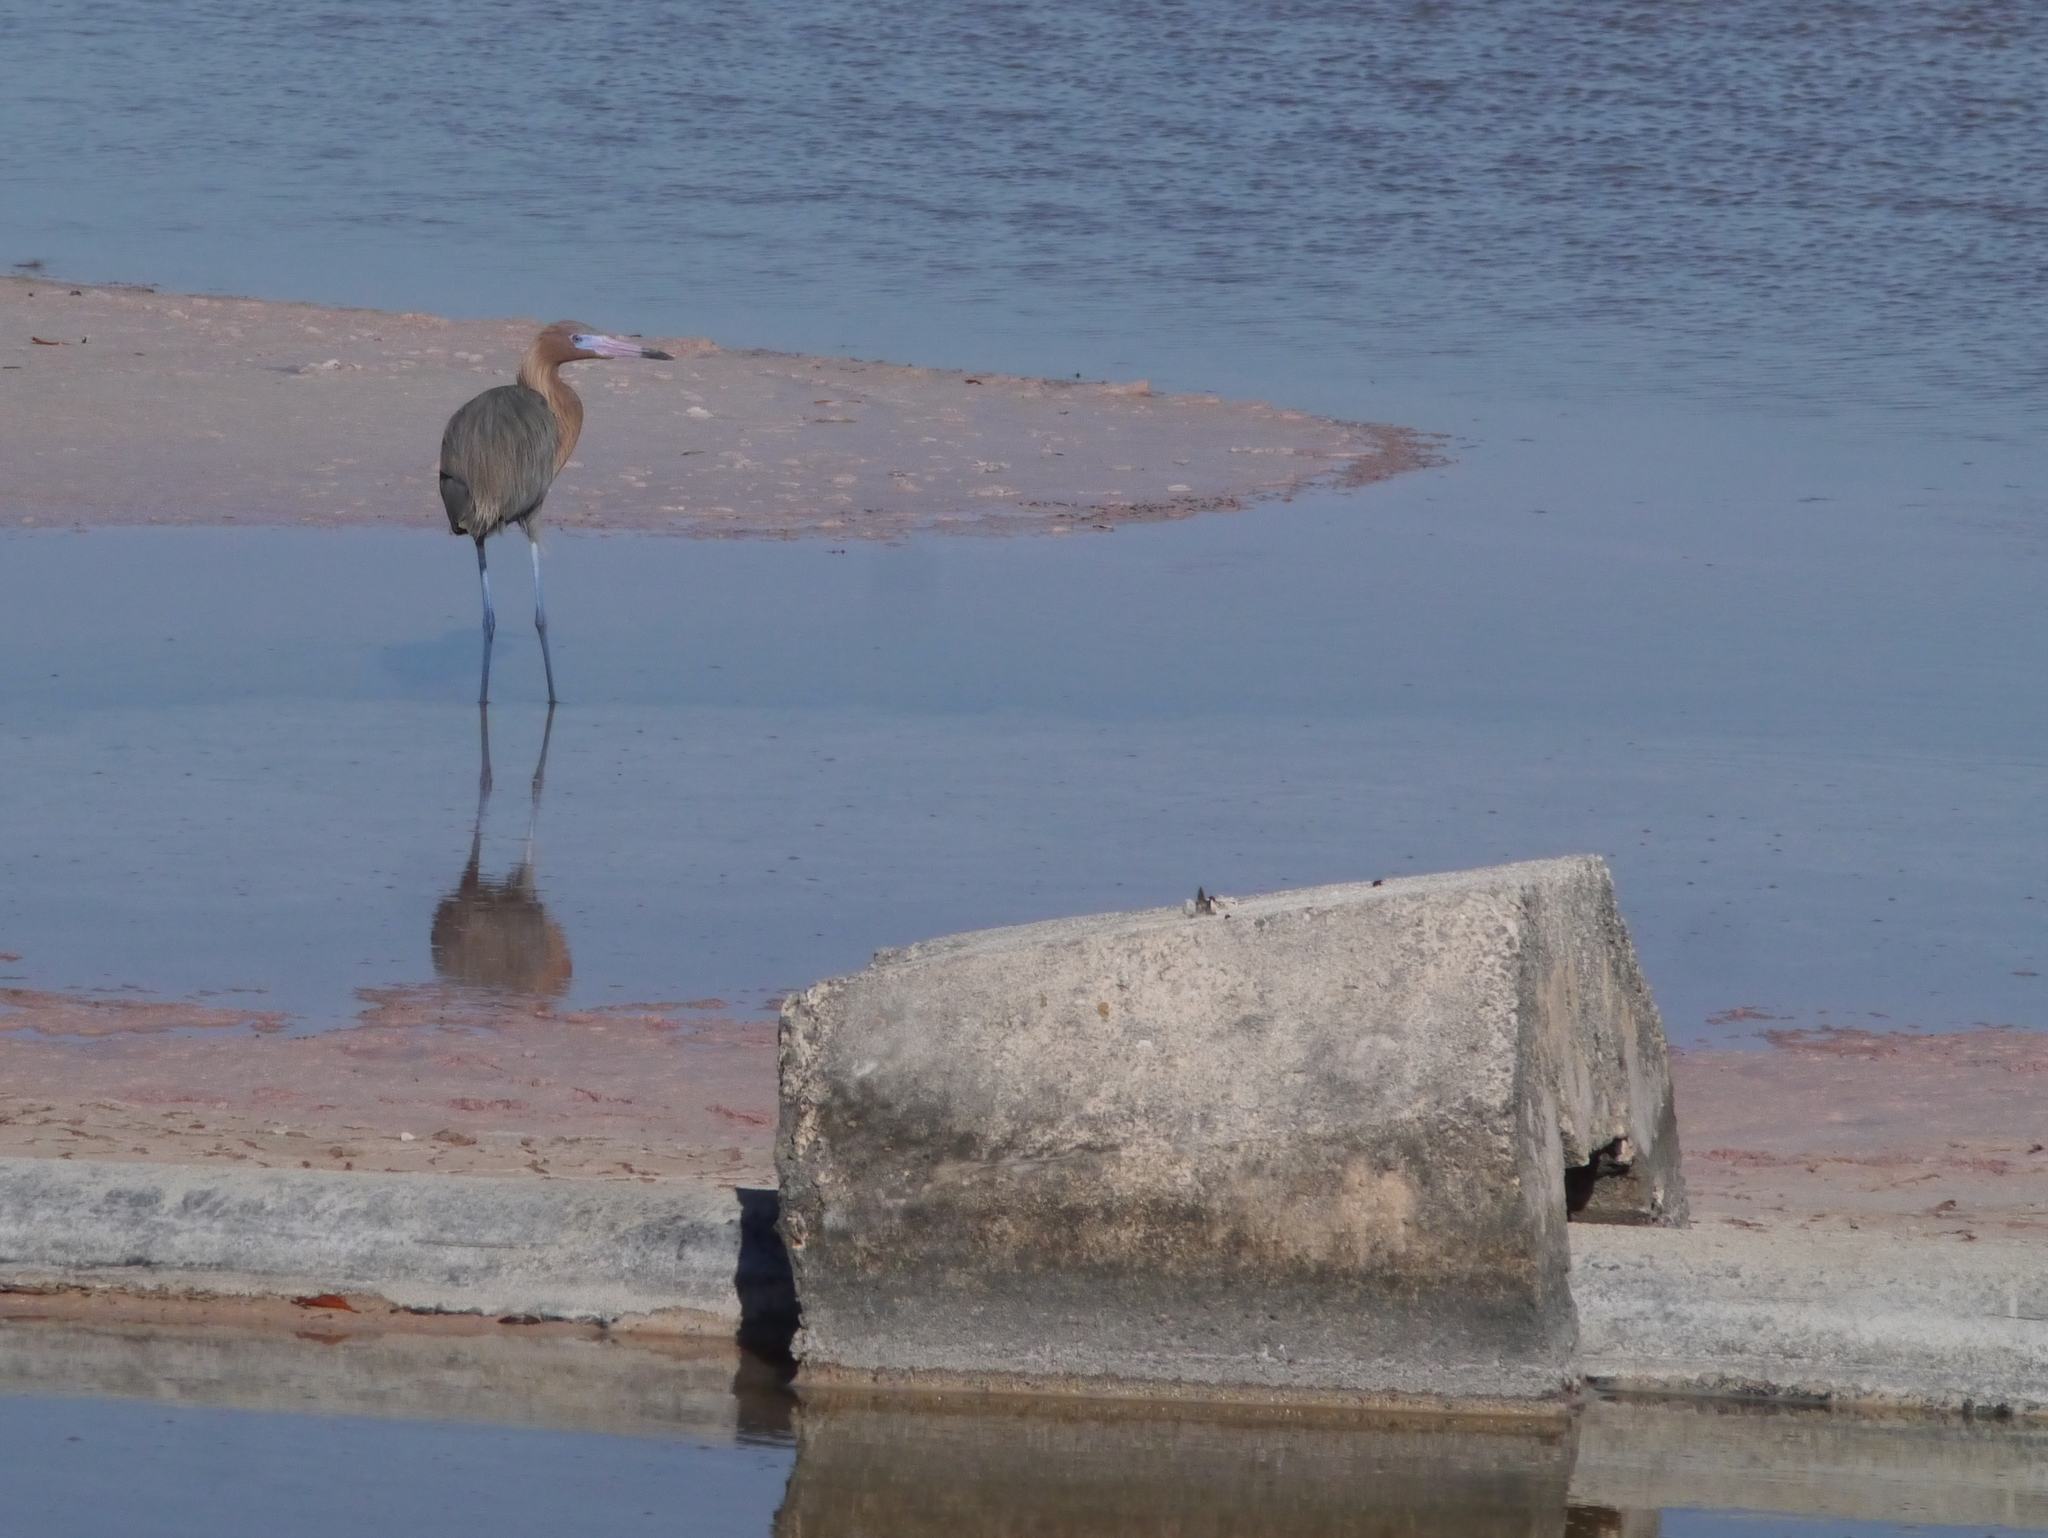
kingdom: Animalia
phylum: Chordata
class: Aves
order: Pelecaniformes
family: Ardeidae
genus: Egretta
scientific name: Egretta rufescens
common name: Reddish egret
